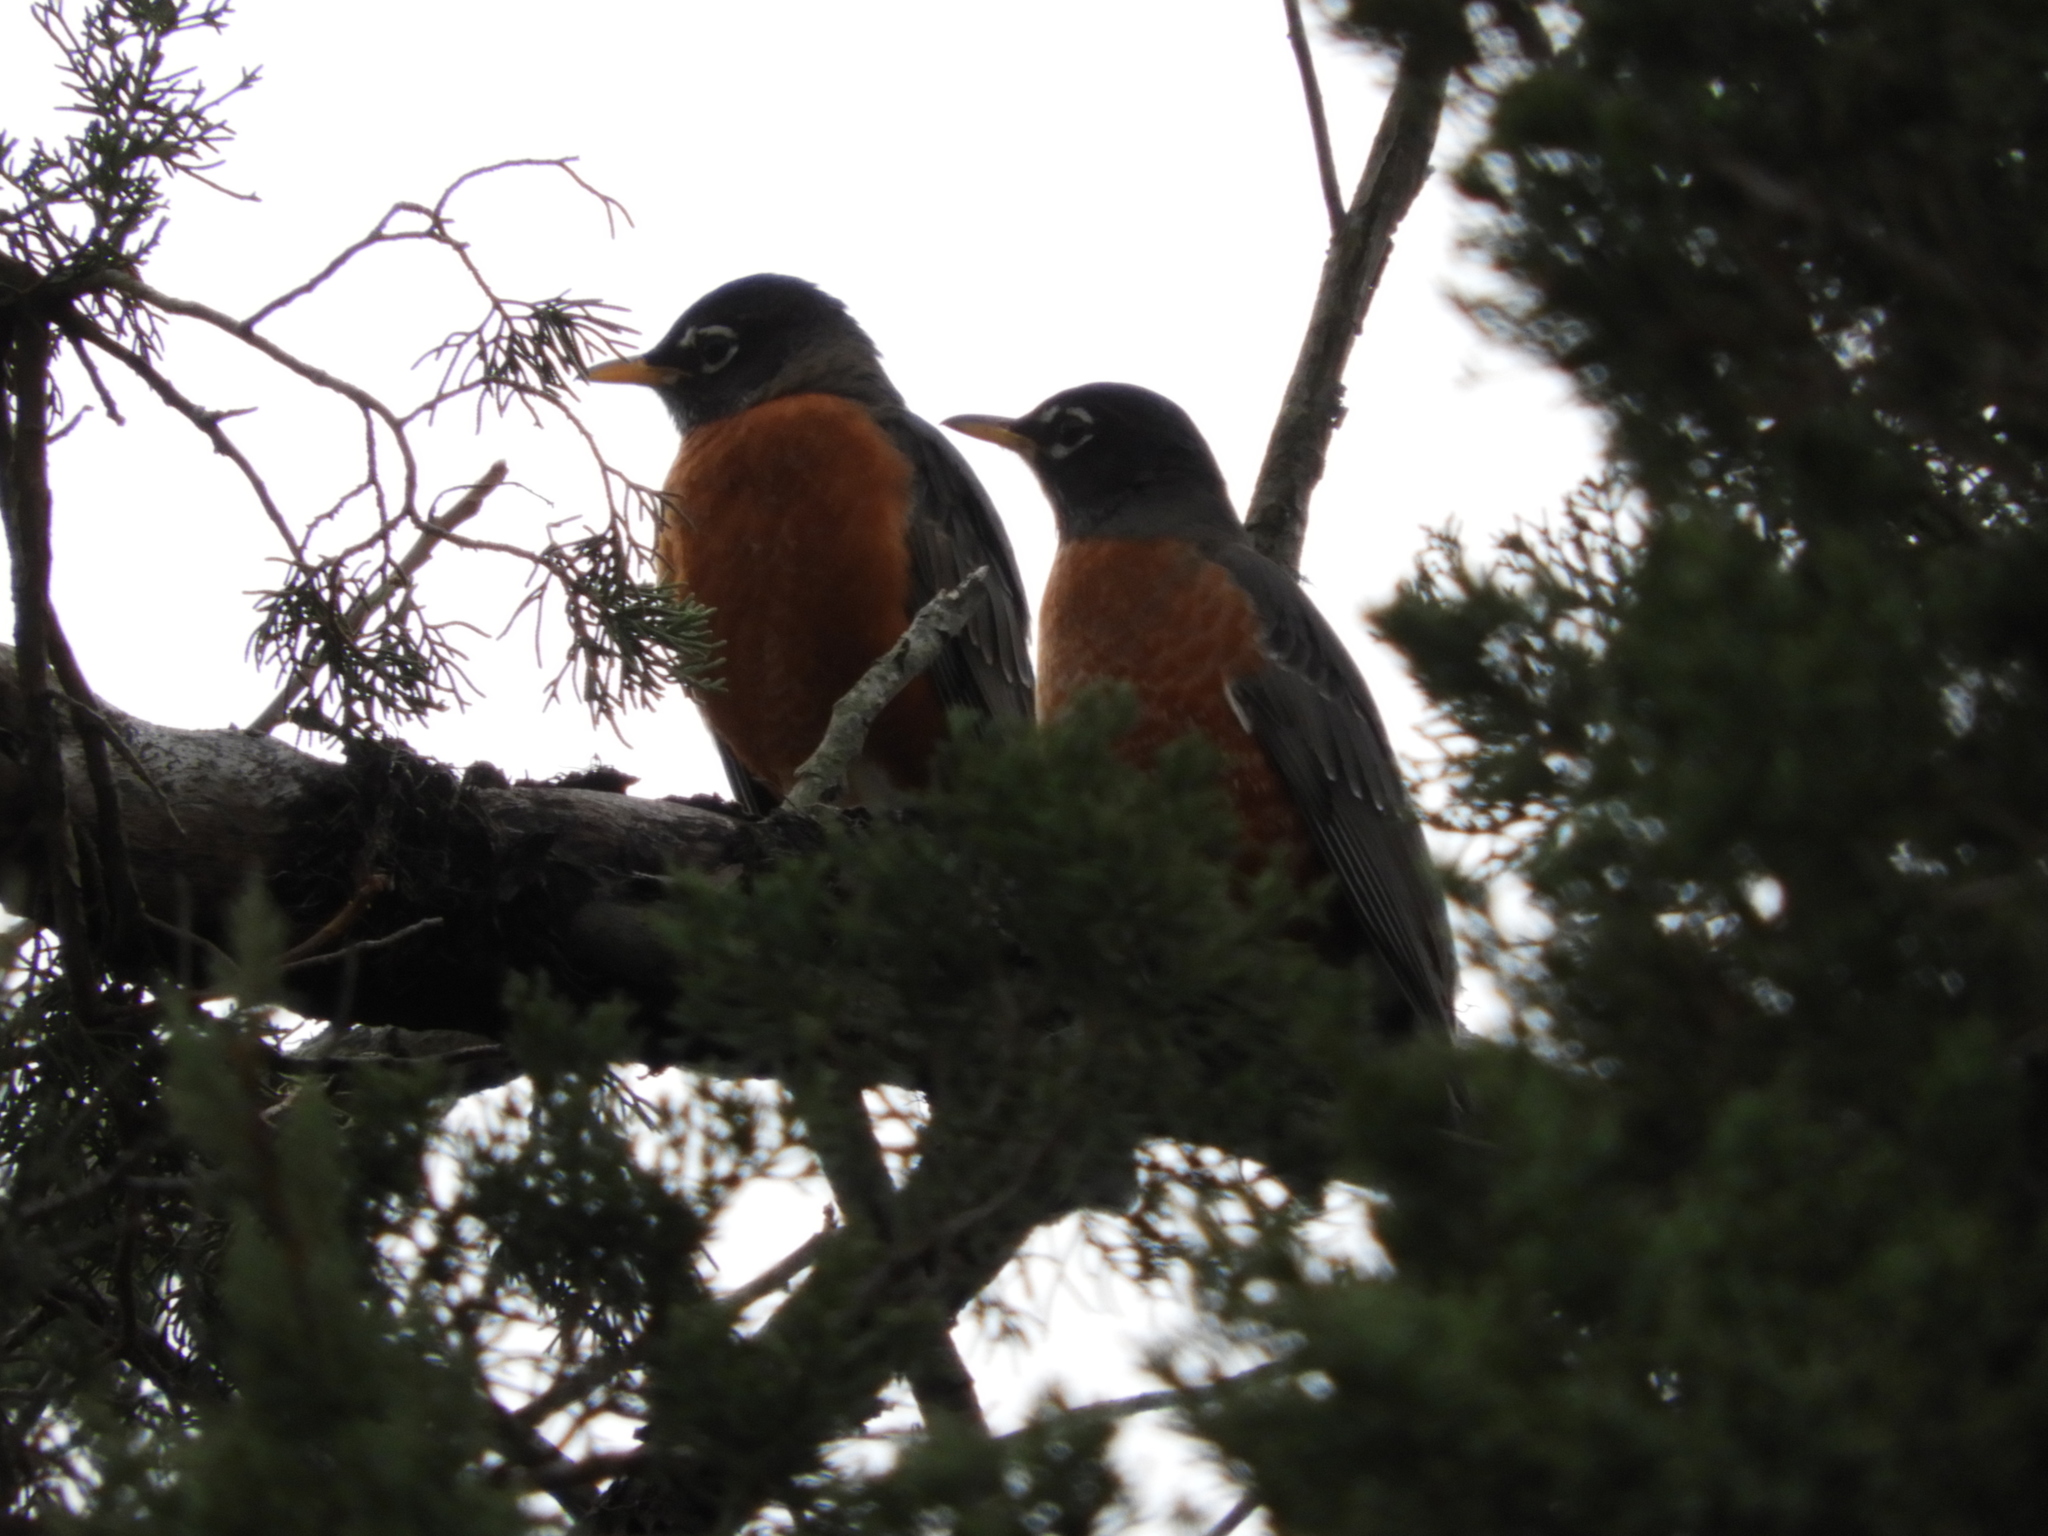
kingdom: Animalia
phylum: Chordata
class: Aves
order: Passeriformes
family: Turdidae
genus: Turdus
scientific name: Turdus migratorius
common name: American robin
